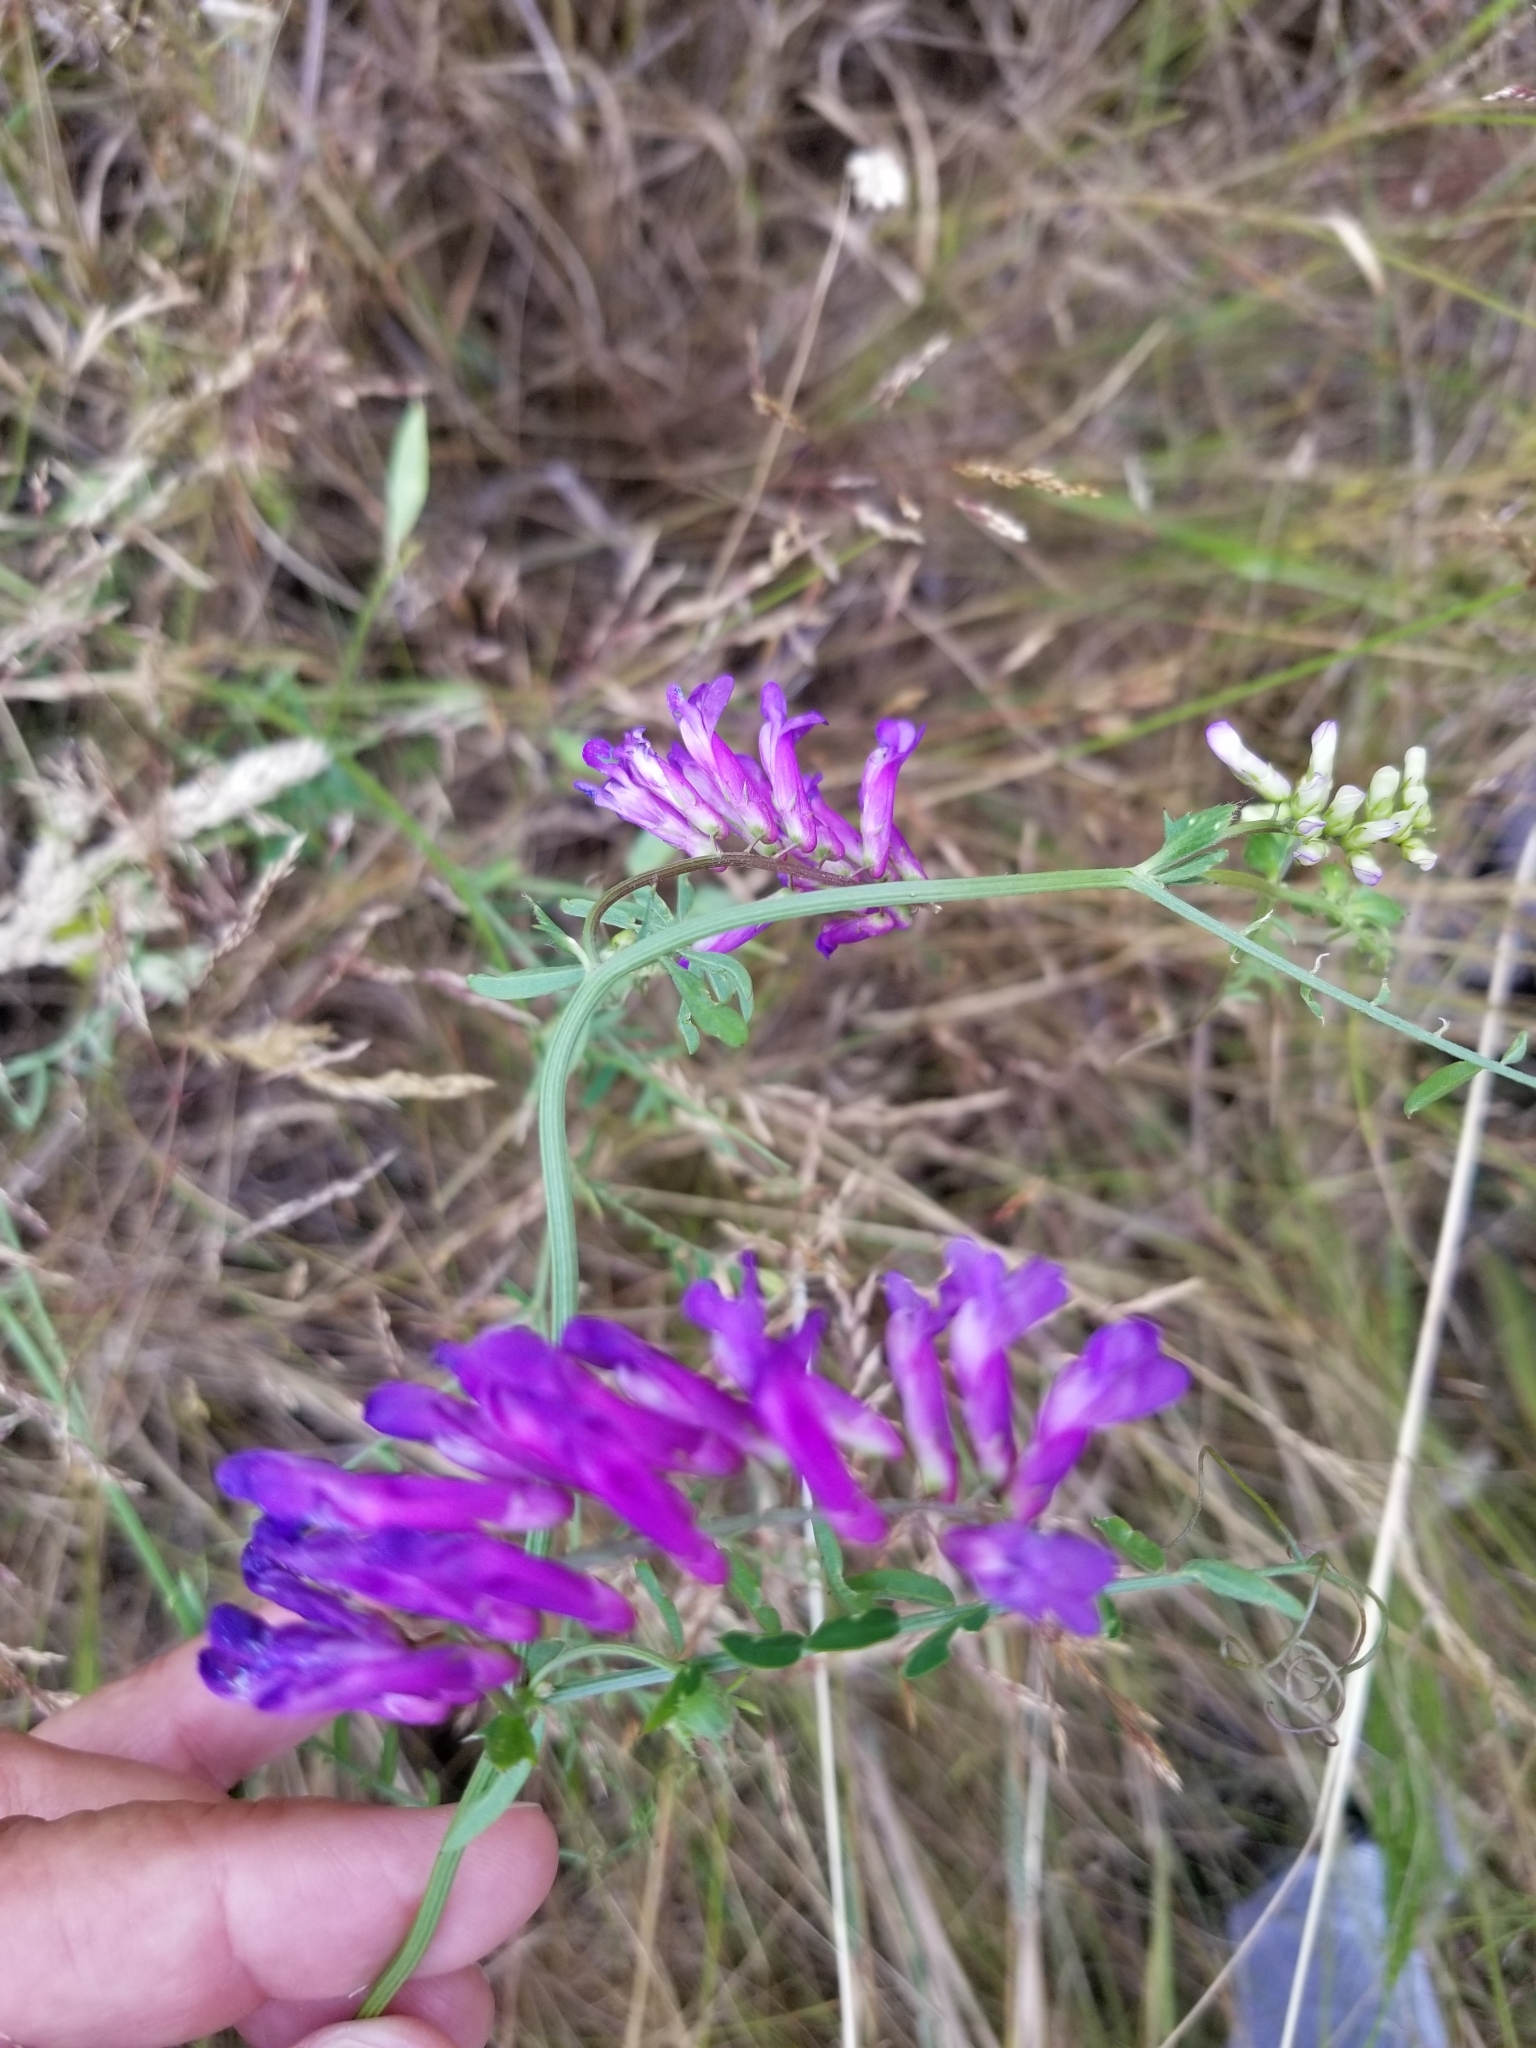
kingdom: Plantae
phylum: Tracheophyta
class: Magnoliopsida
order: Fabales
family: Fabaceae
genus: Vicia
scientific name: Vicia villosa
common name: Fodder vetch
